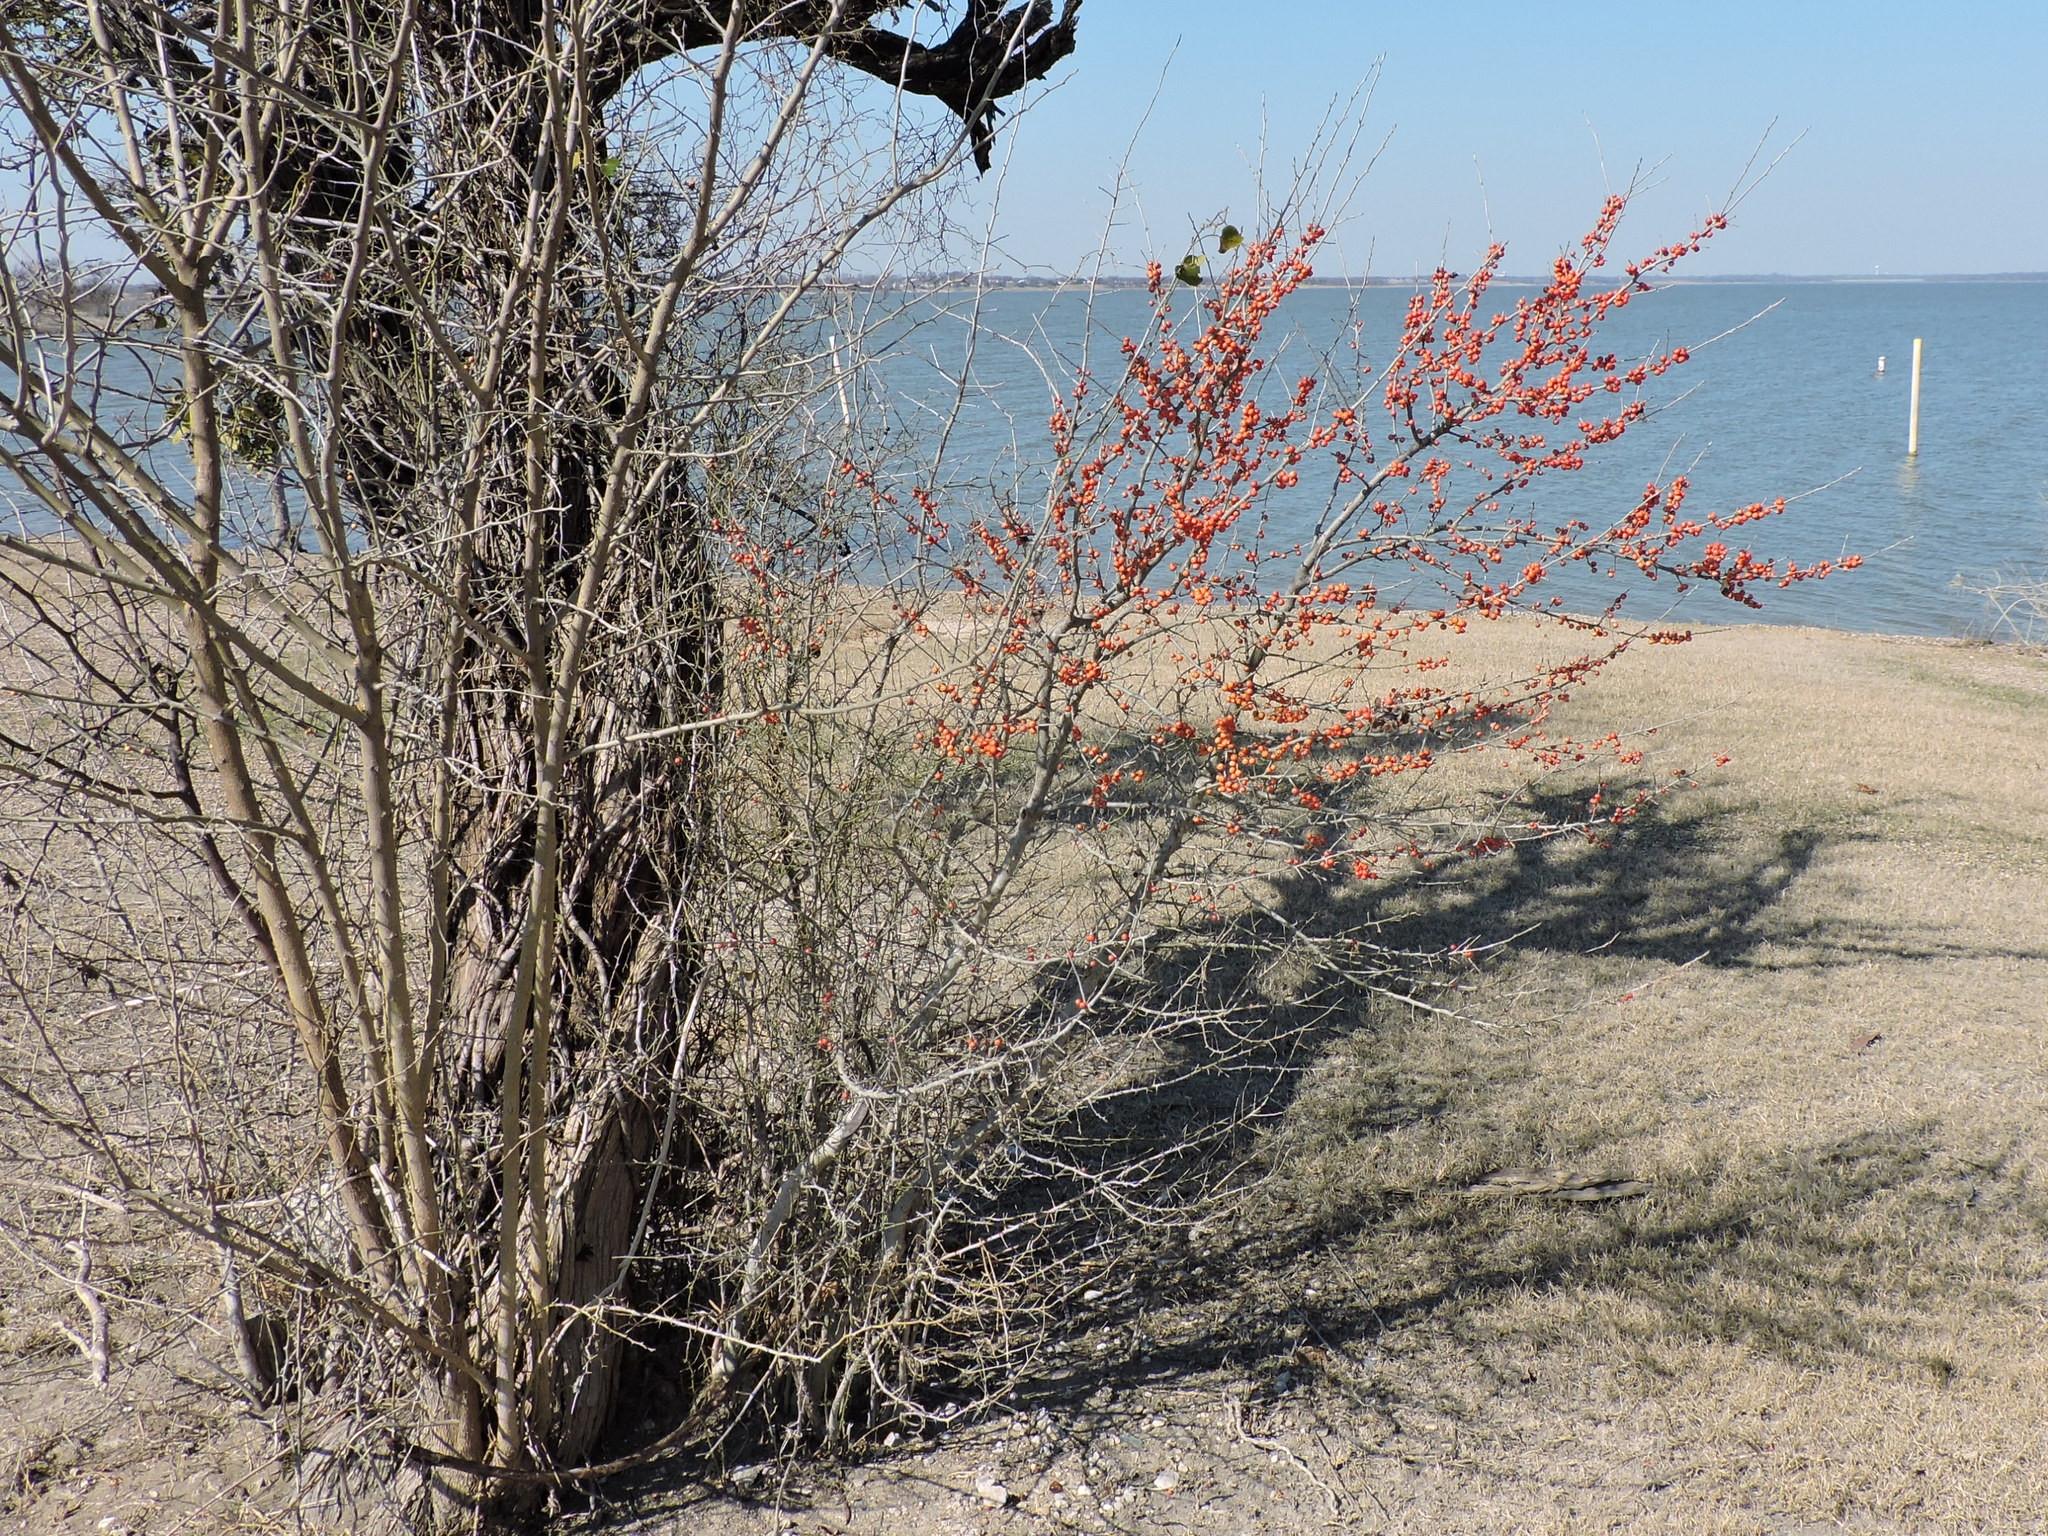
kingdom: Plantae
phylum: Tracheophyta
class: Magnoliopsida
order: Aquifoliales
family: Aquifoliaceae
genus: Ilex
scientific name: Ilex decidua
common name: Possum-haw
